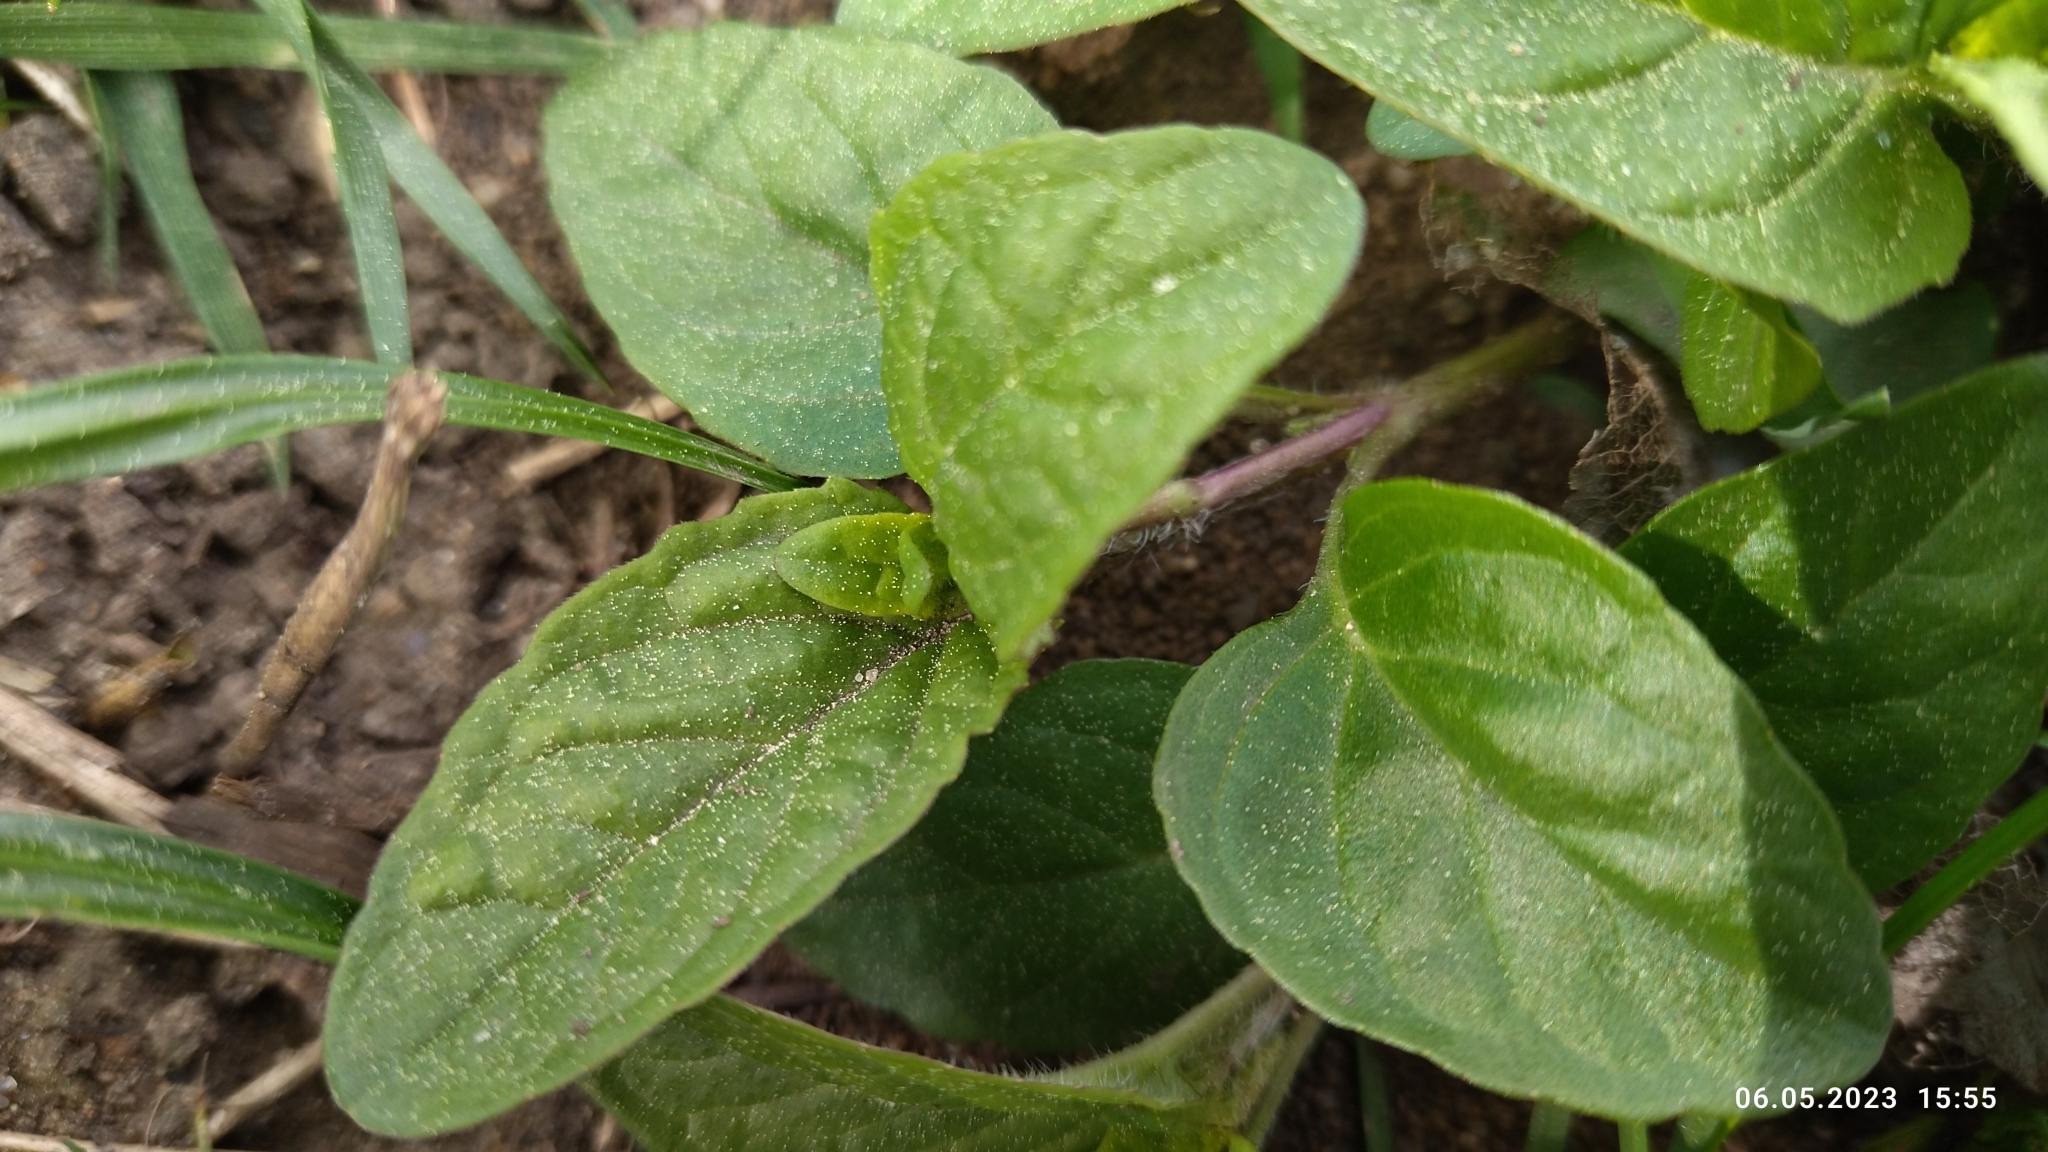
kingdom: Plantae
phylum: Tracheophyta
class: Magnoliopsida
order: Lamiales
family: Lamiaceae
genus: Prunella
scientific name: Prunella vulgaris
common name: Heal-all
